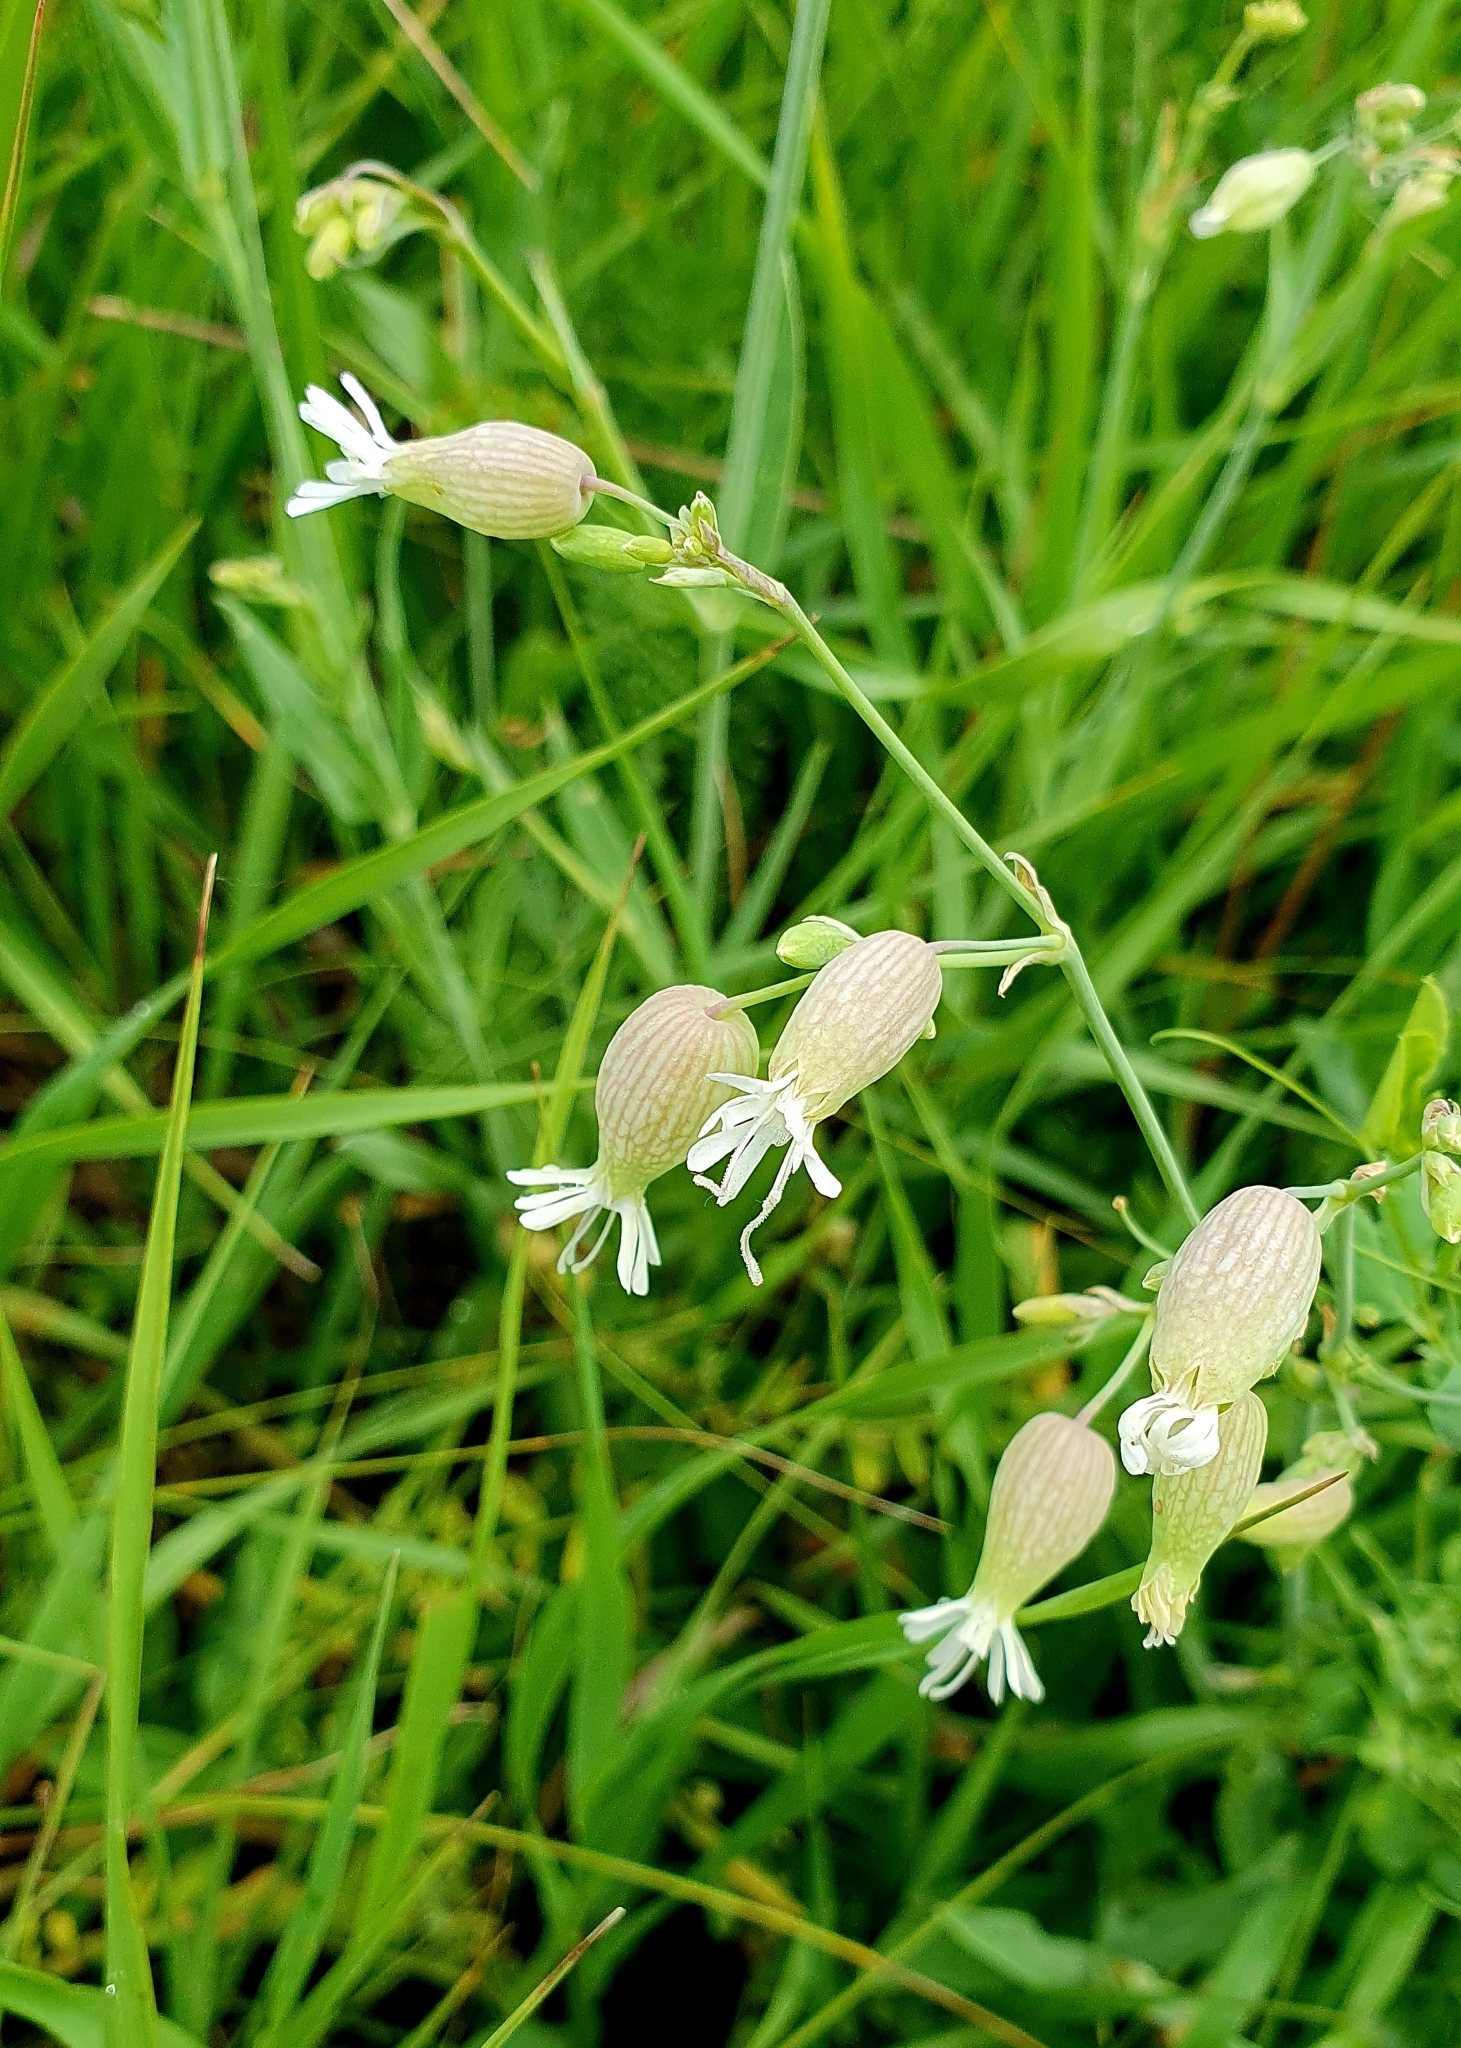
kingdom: Plantae
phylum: Tracheophyta
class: Magnoliopsida
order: Caryophyllales
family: Caryophyllaceae
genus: Silene
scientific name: Silene vulgaris
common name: Bladder campion
